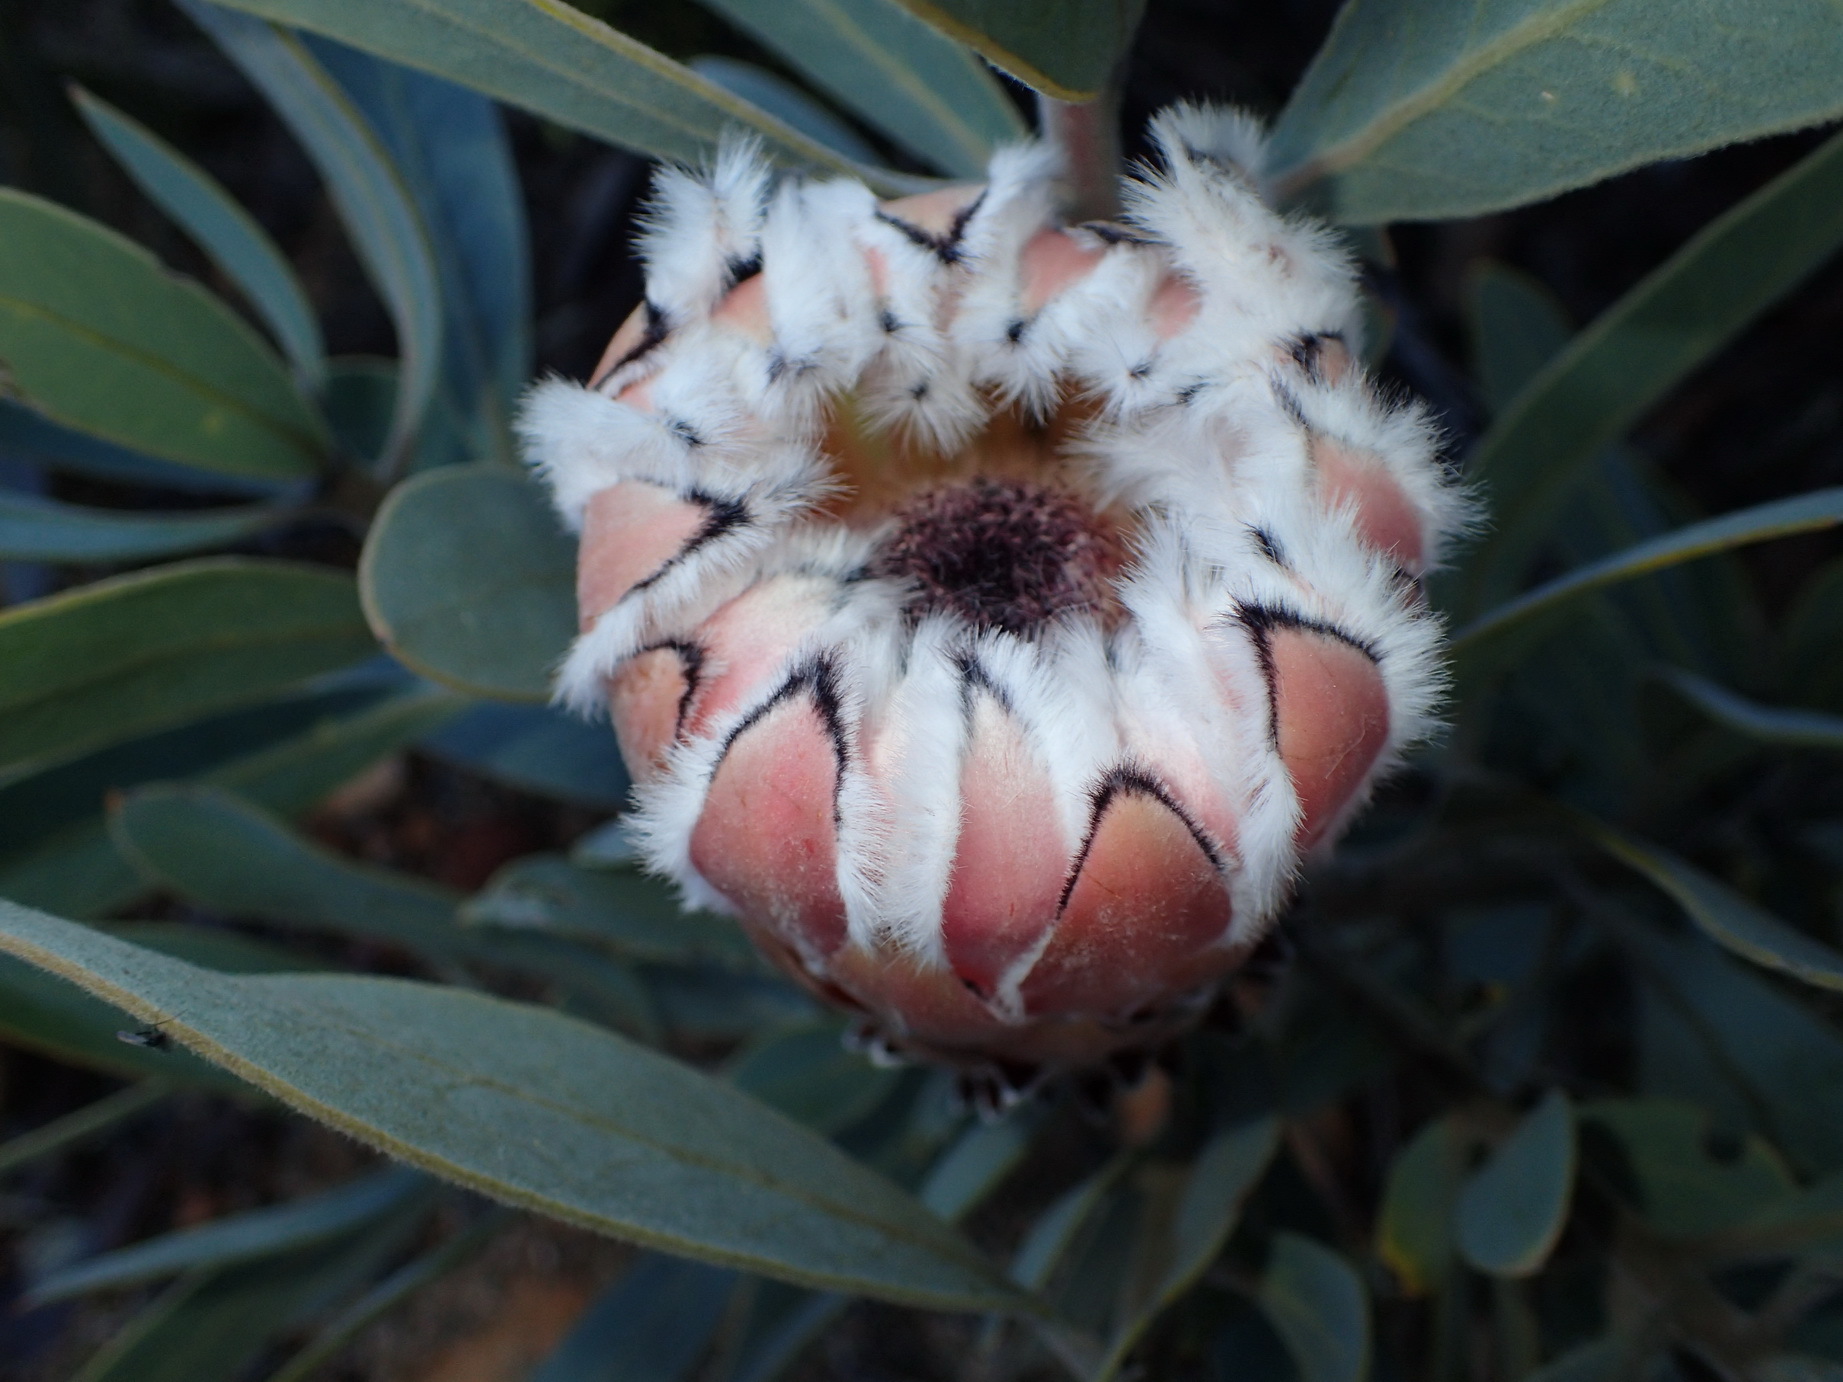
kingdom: Plantae
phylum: Tracheophyta
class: Magnoliopsida
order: Proteales
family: Proteaceae
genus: Protea
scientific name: Protea laurifolia
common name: Grey-leaf sugarbsh
